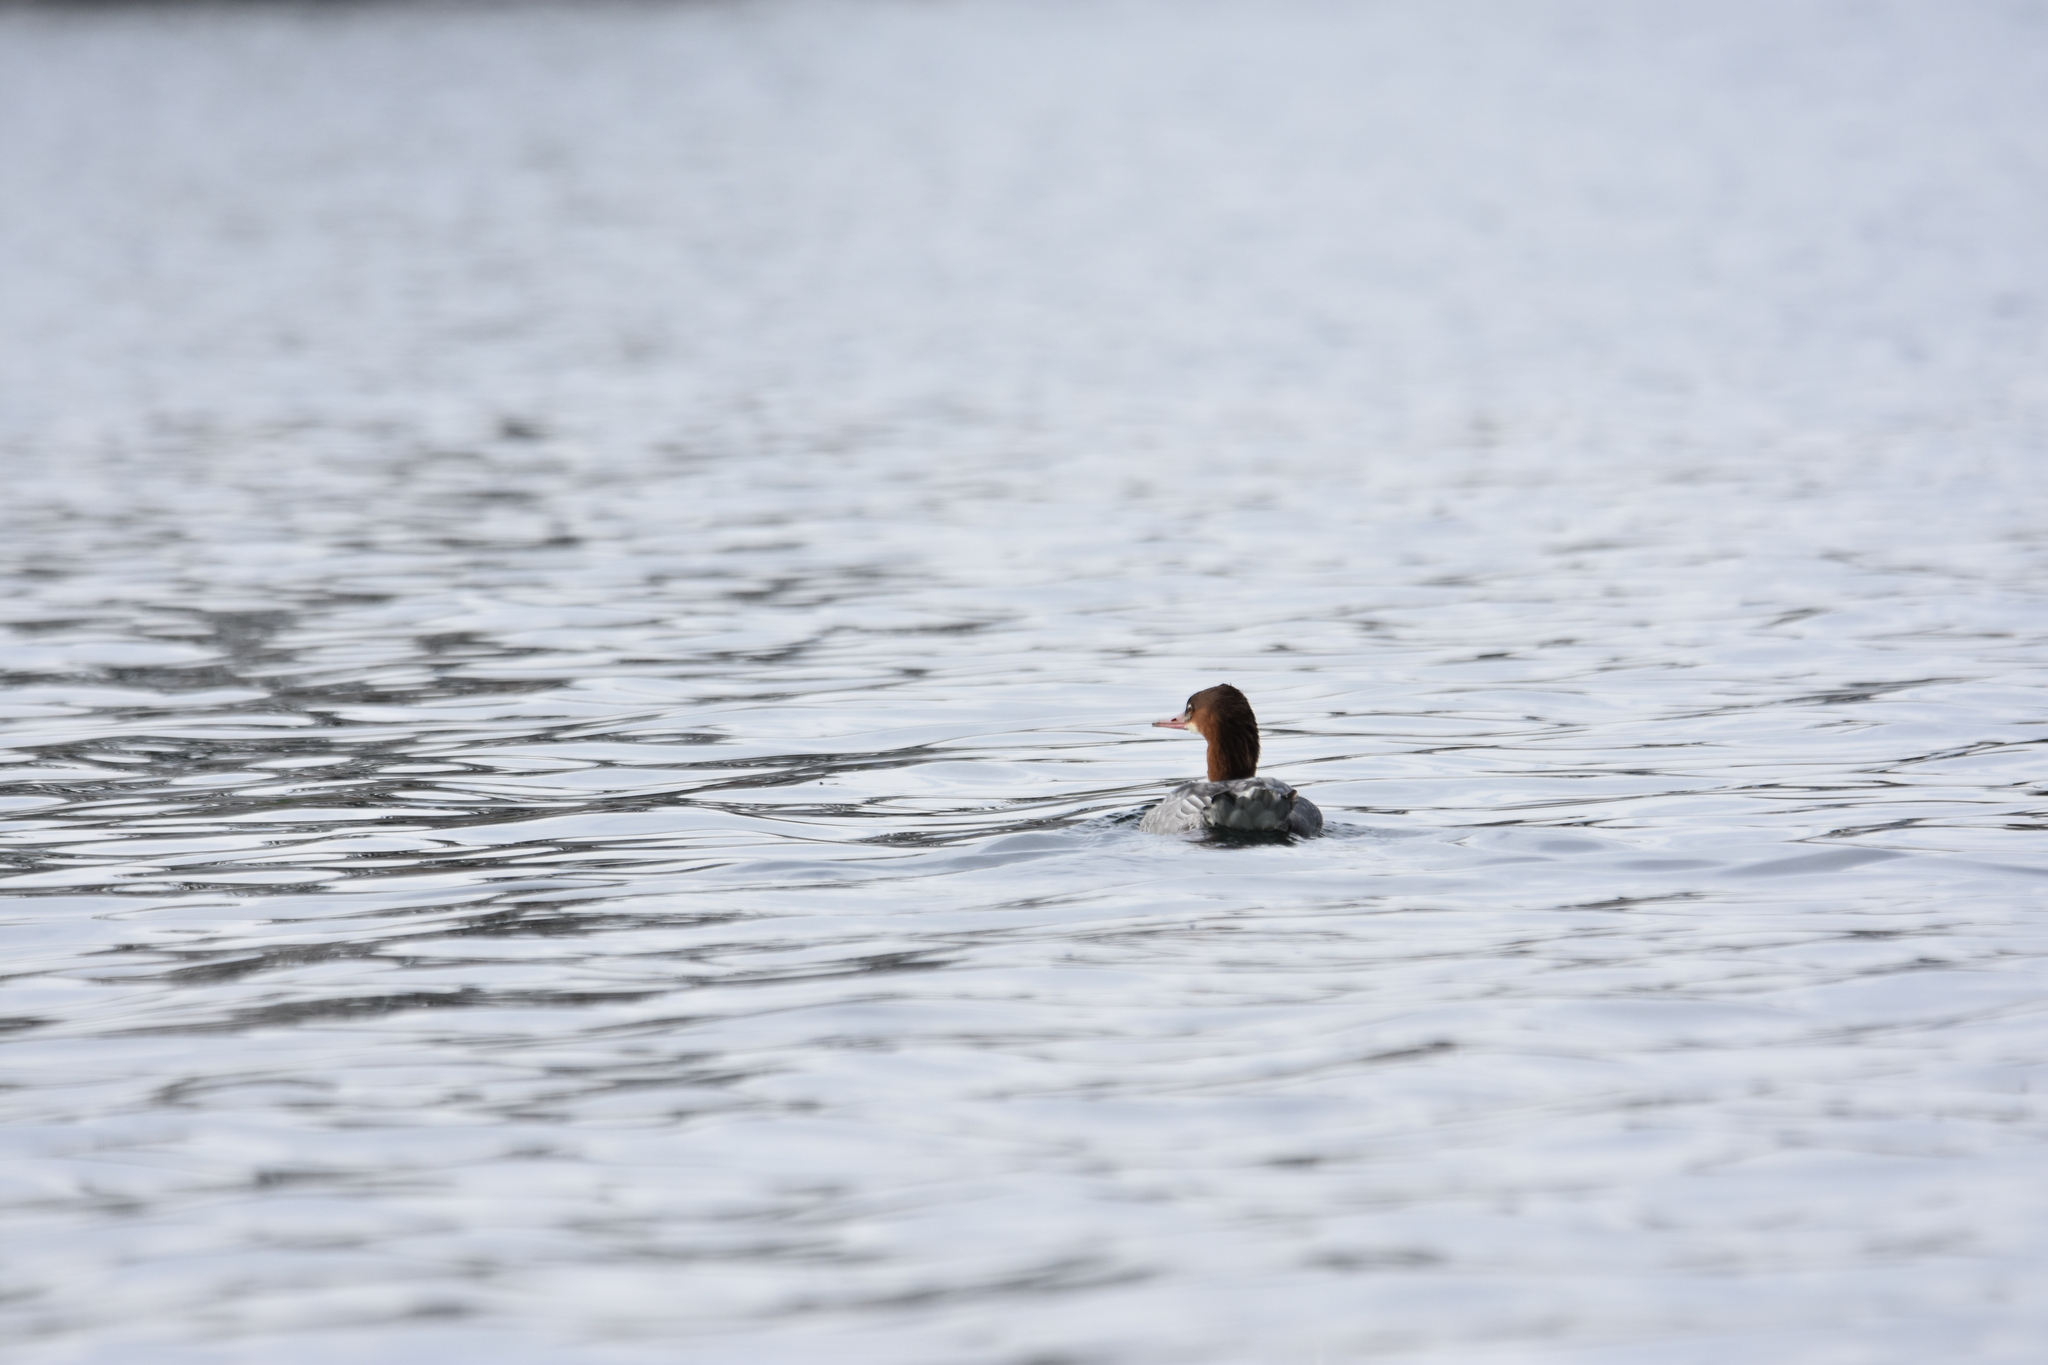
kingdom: Animalia
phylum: Chordata
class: Aves
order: Anseriformes
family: Anatidae
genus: Mergus
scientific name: Mergus merganser
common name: Common merganser
